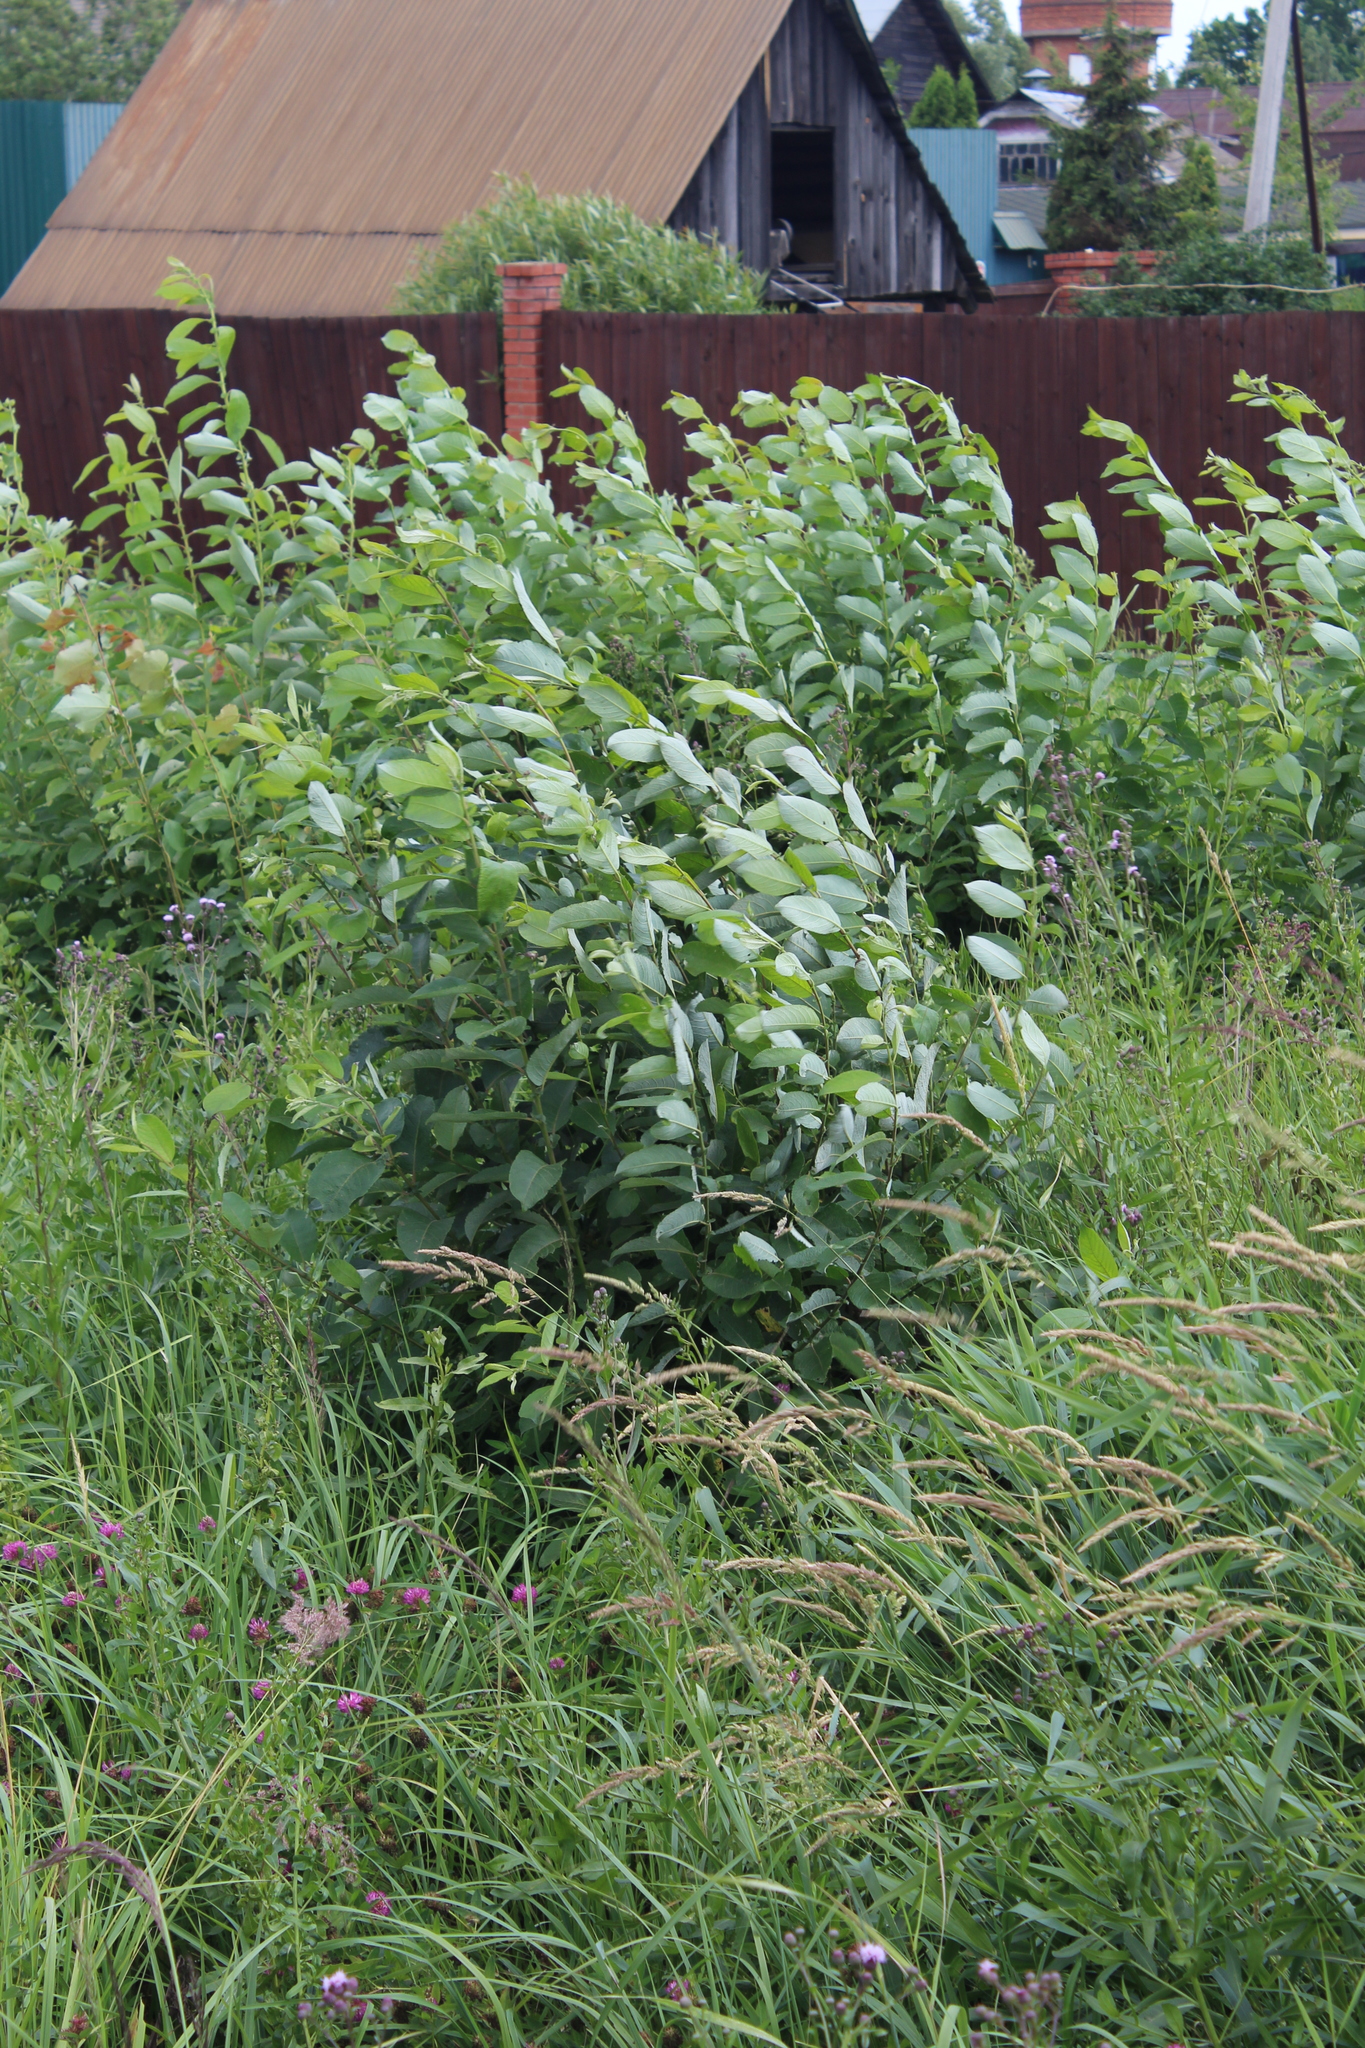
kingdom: Plantae
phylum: Tracheophyta
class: Magnoliopsida
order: Malpighiales
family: Salicaceae
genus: Salix
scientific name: Salix caprea
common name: Goat willow
